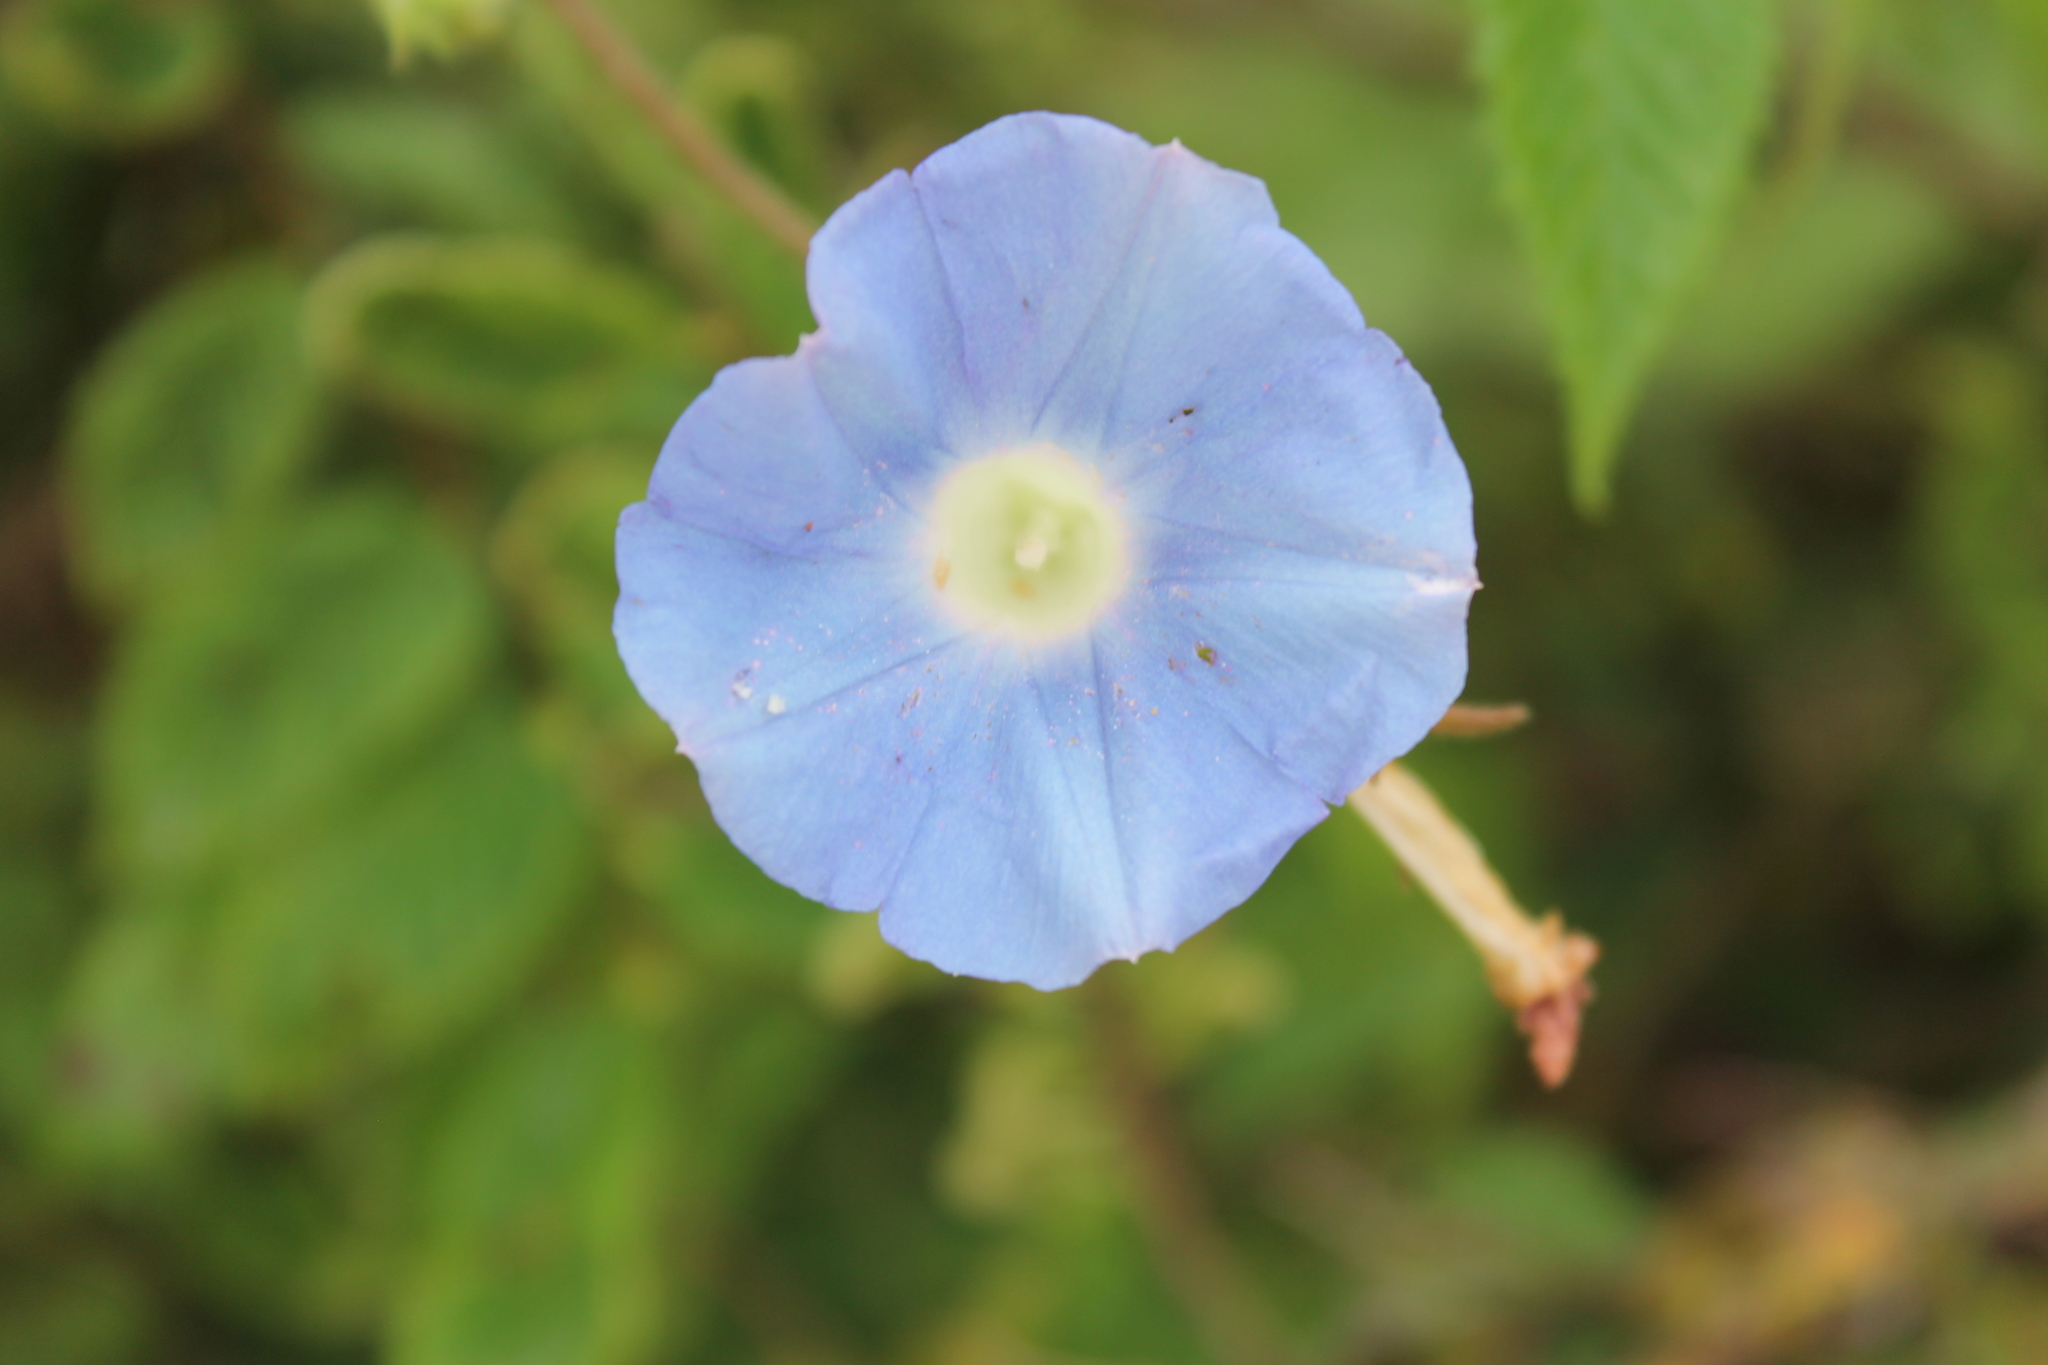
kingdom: Plantae
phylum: Tracheophyta
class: Magnoliopsida
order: Solanales
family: Convolvulaceae
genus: Ipomoea
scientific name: Ipomoea hederacea
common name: Ivy-leaved morning-glory
